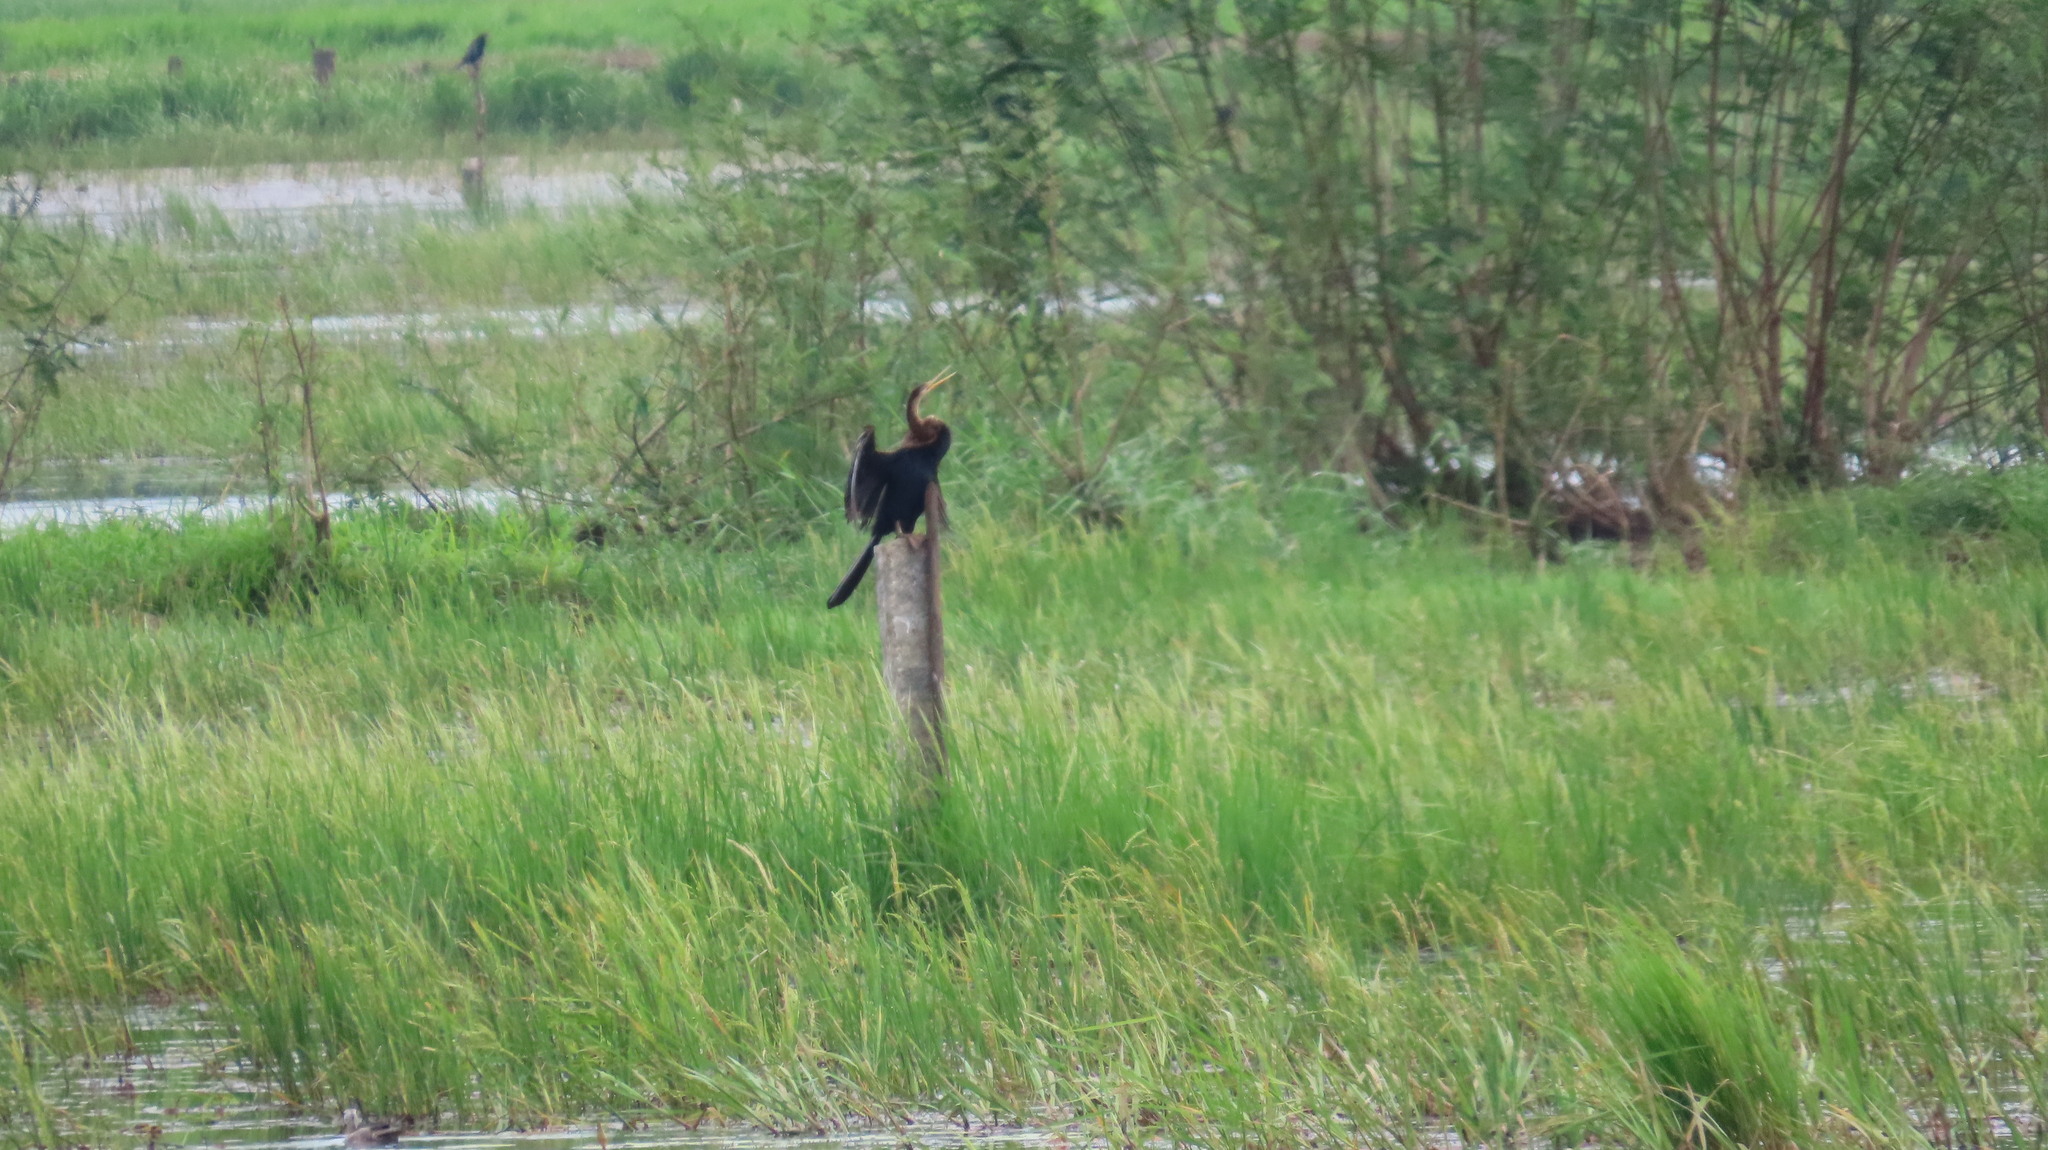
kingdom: Animalia
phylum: Chordata
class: Aves
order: Suliformes
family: Anhingidae
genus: Anhinga
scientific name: Anhinga melanogaster
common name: Oriental darter
